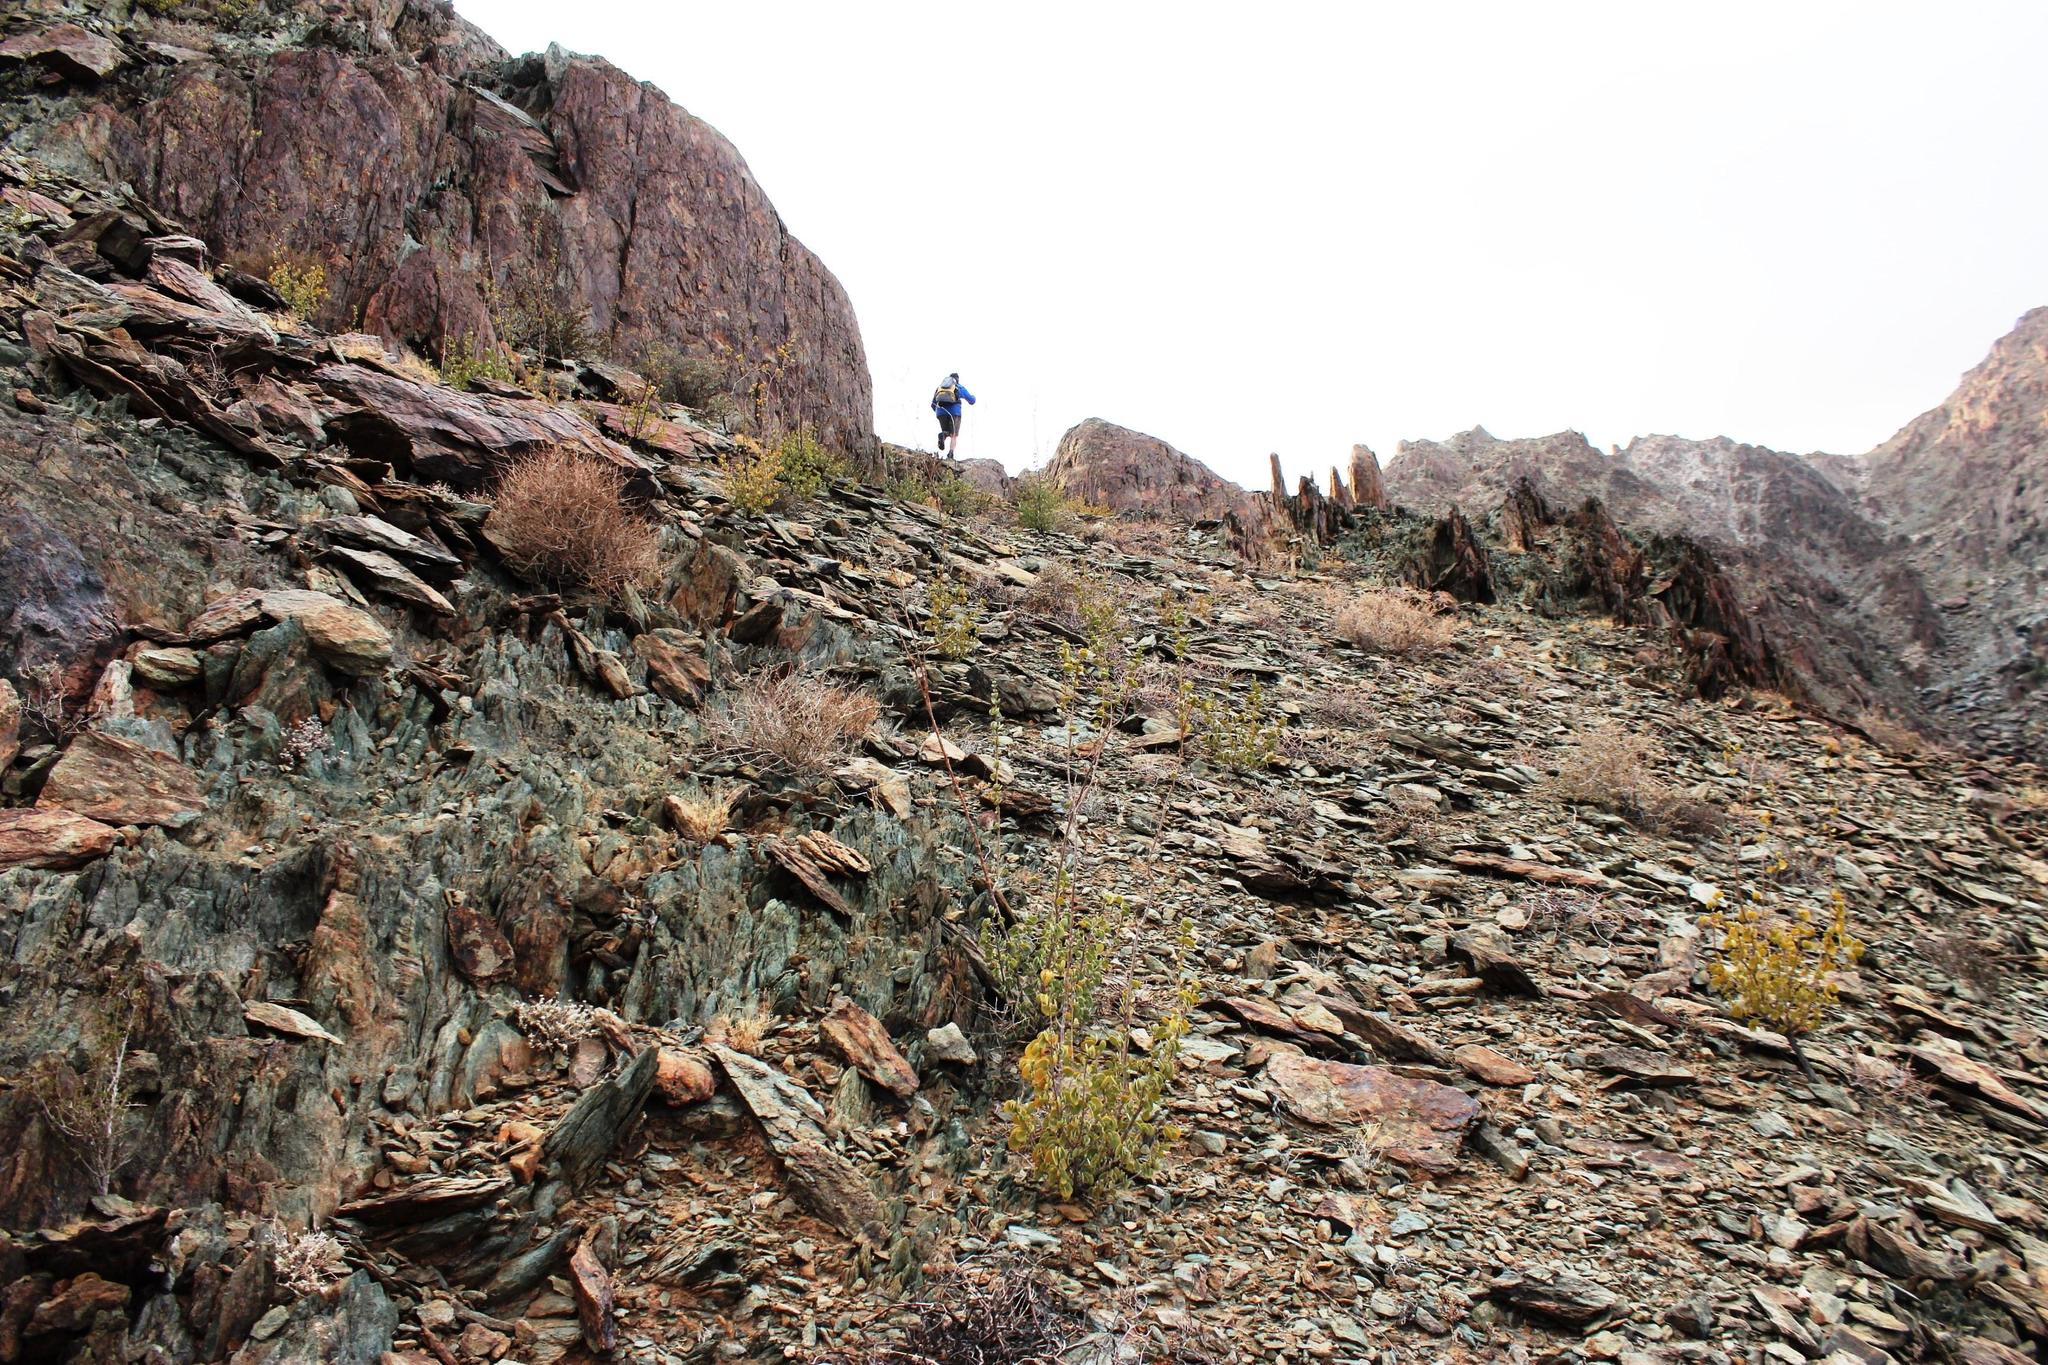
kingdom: Plantae
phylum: Tracheophyta
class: Magnoliopsida
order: Asterales
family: Asteraceae
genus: Euryops
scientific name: Euryops namibensis
